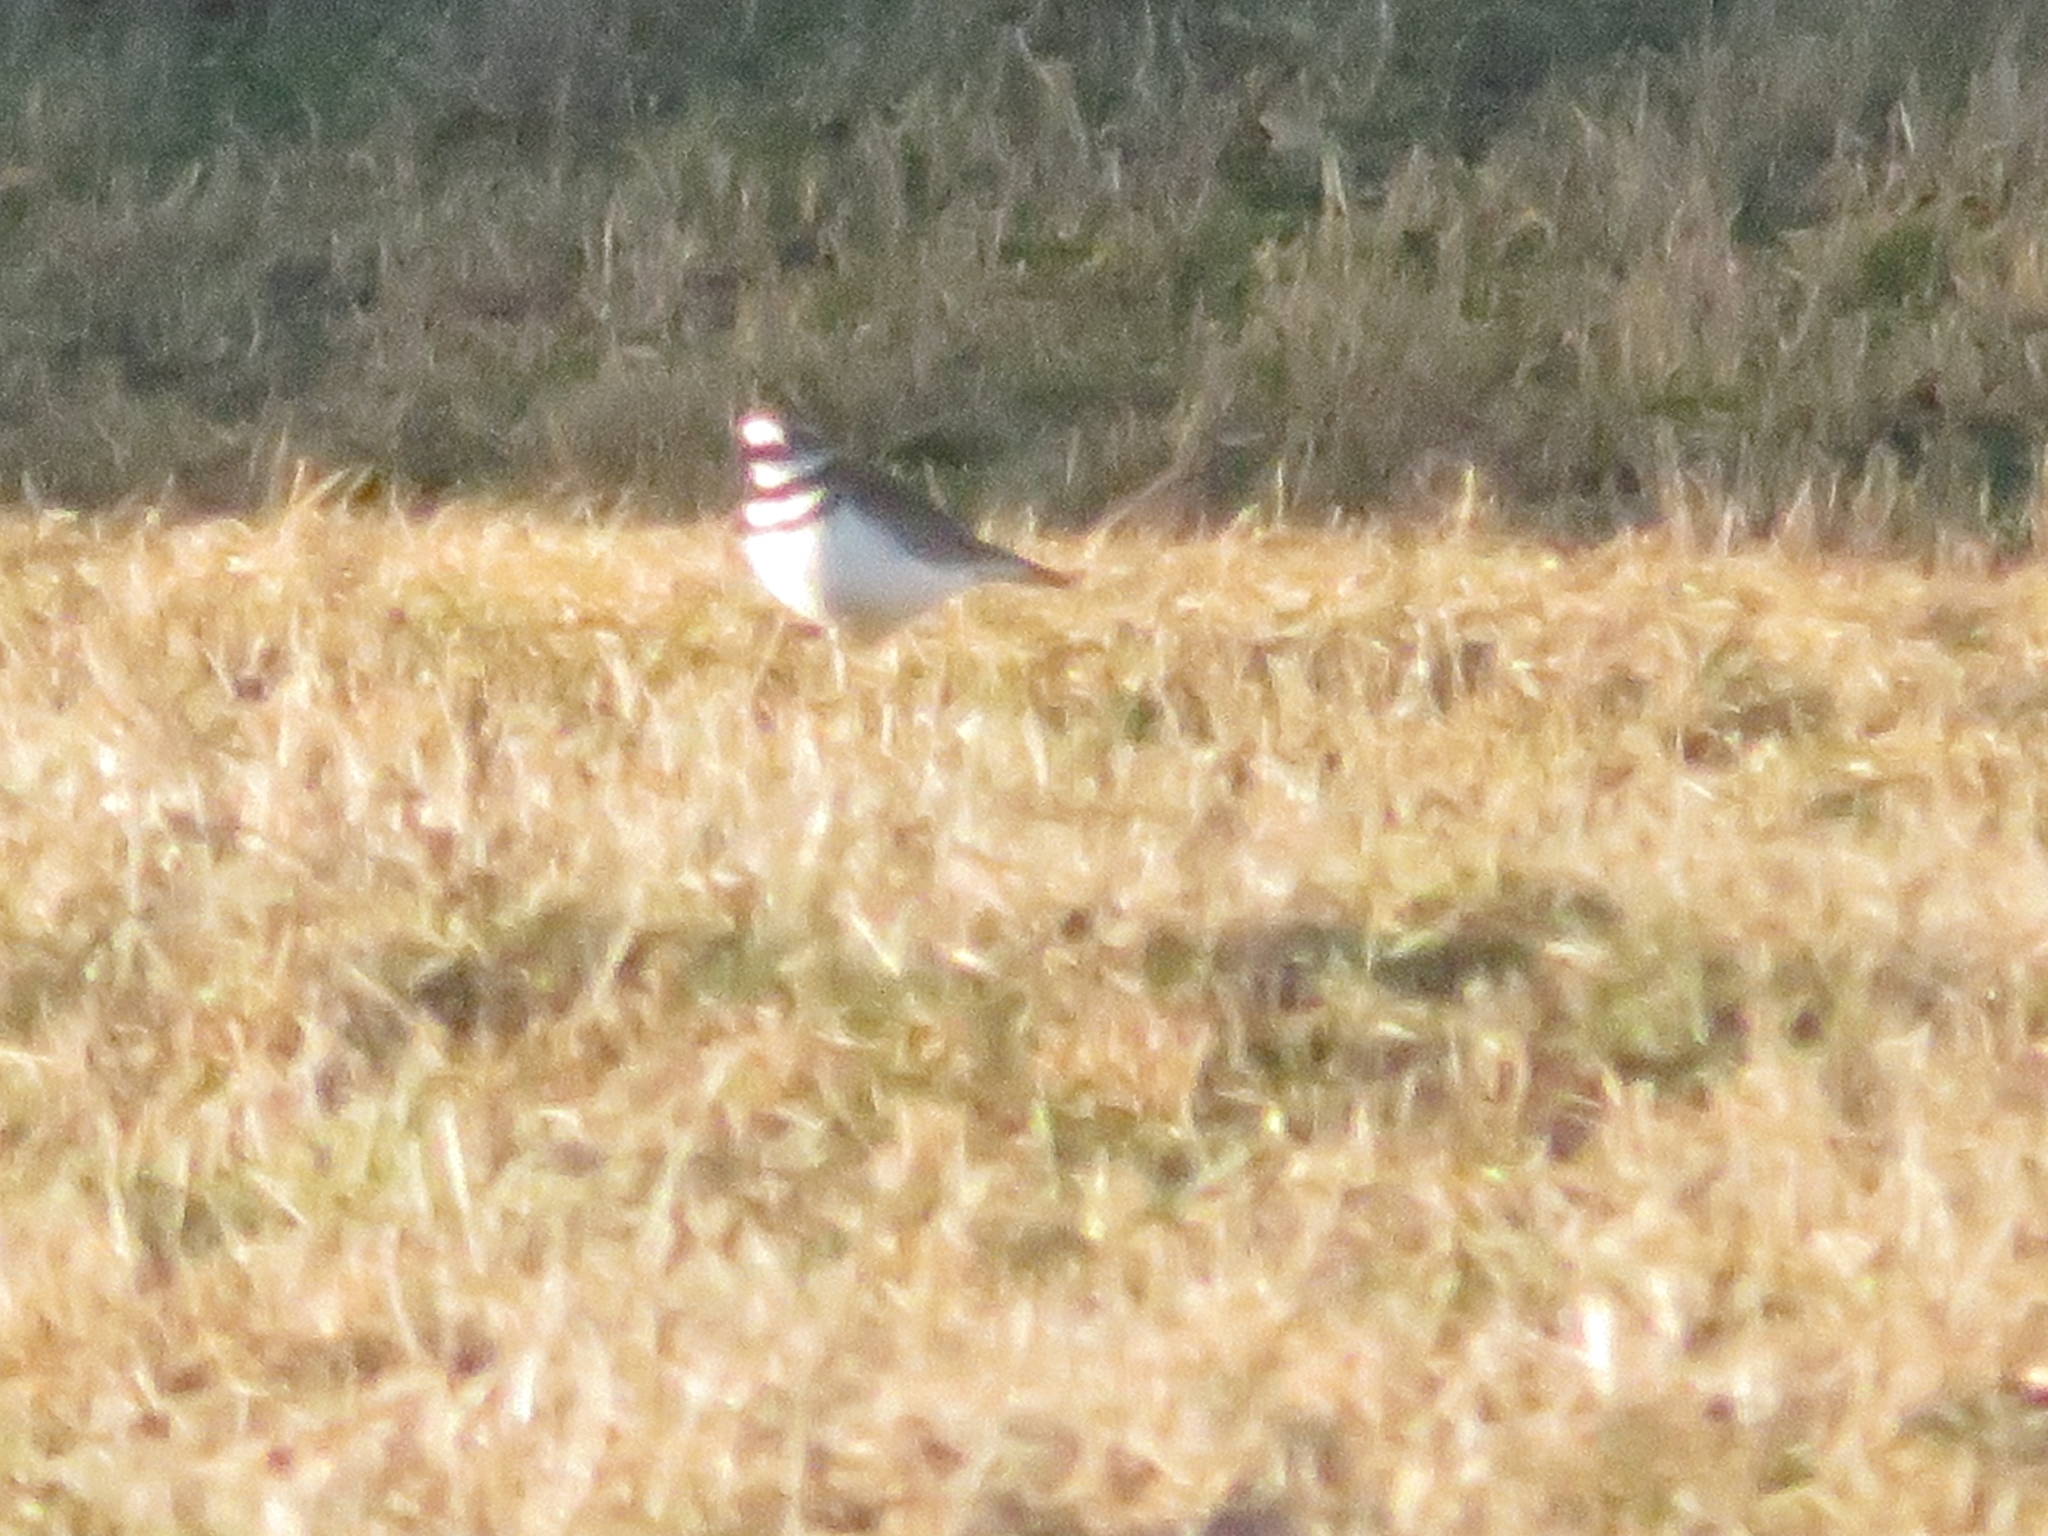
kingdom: Animalia
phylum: Chordata
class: Aves
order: Charadriiformes
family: Charadriidae
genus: Charadrius
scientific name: Charadrius vociferus
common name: Killdeer
